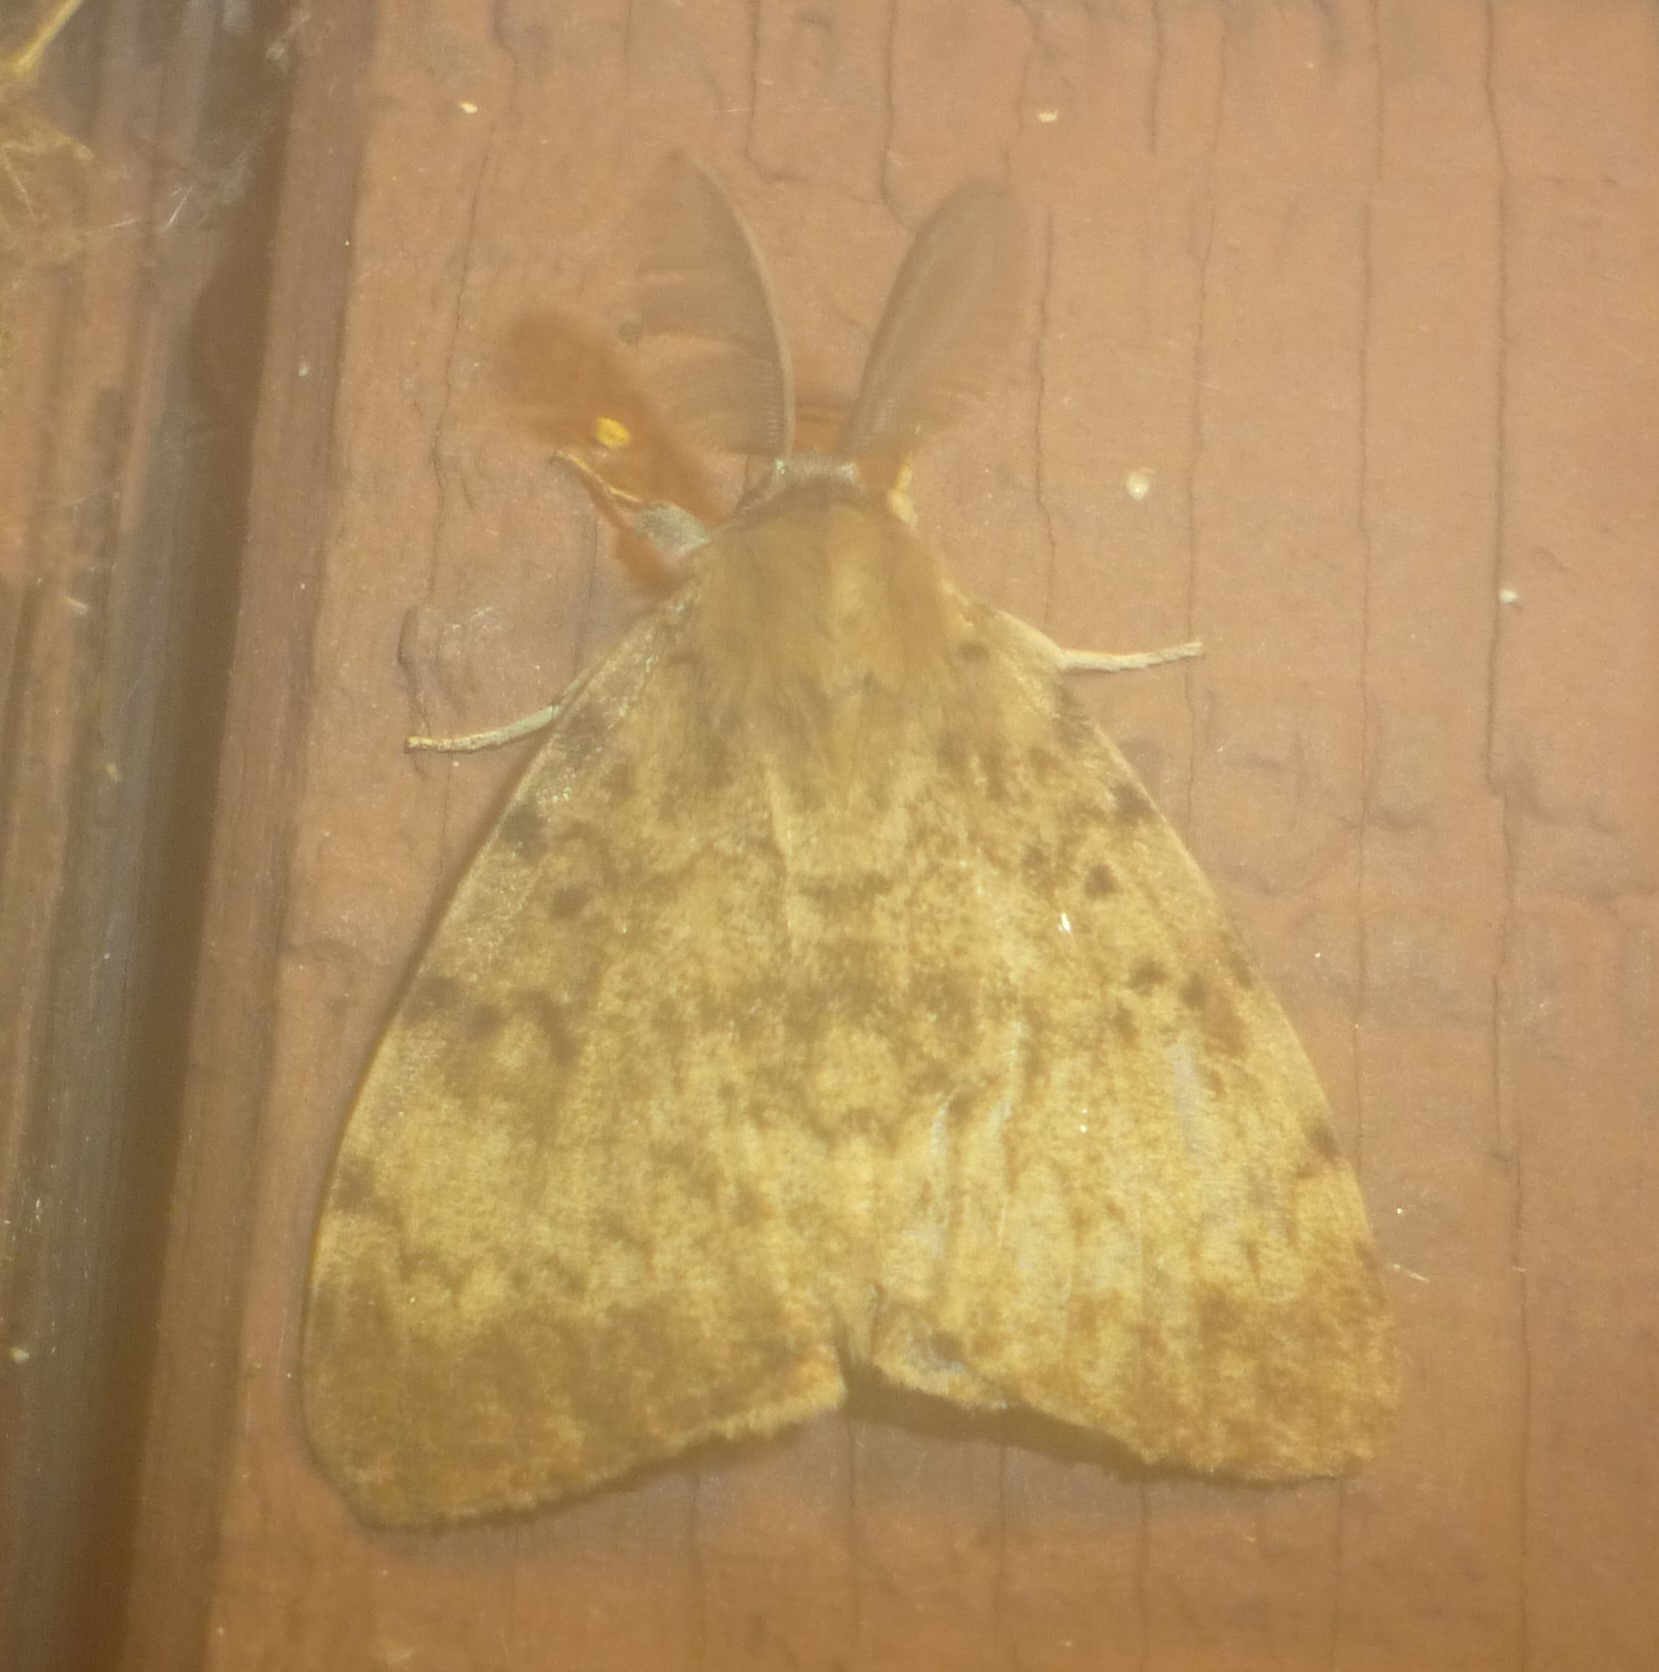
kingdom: Animalia
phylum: Arthropoda
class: Insecta
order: Lepidoptera
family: Erebidae
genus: Lymantria
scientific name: Lymantria dispar
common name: Gypsy moth
